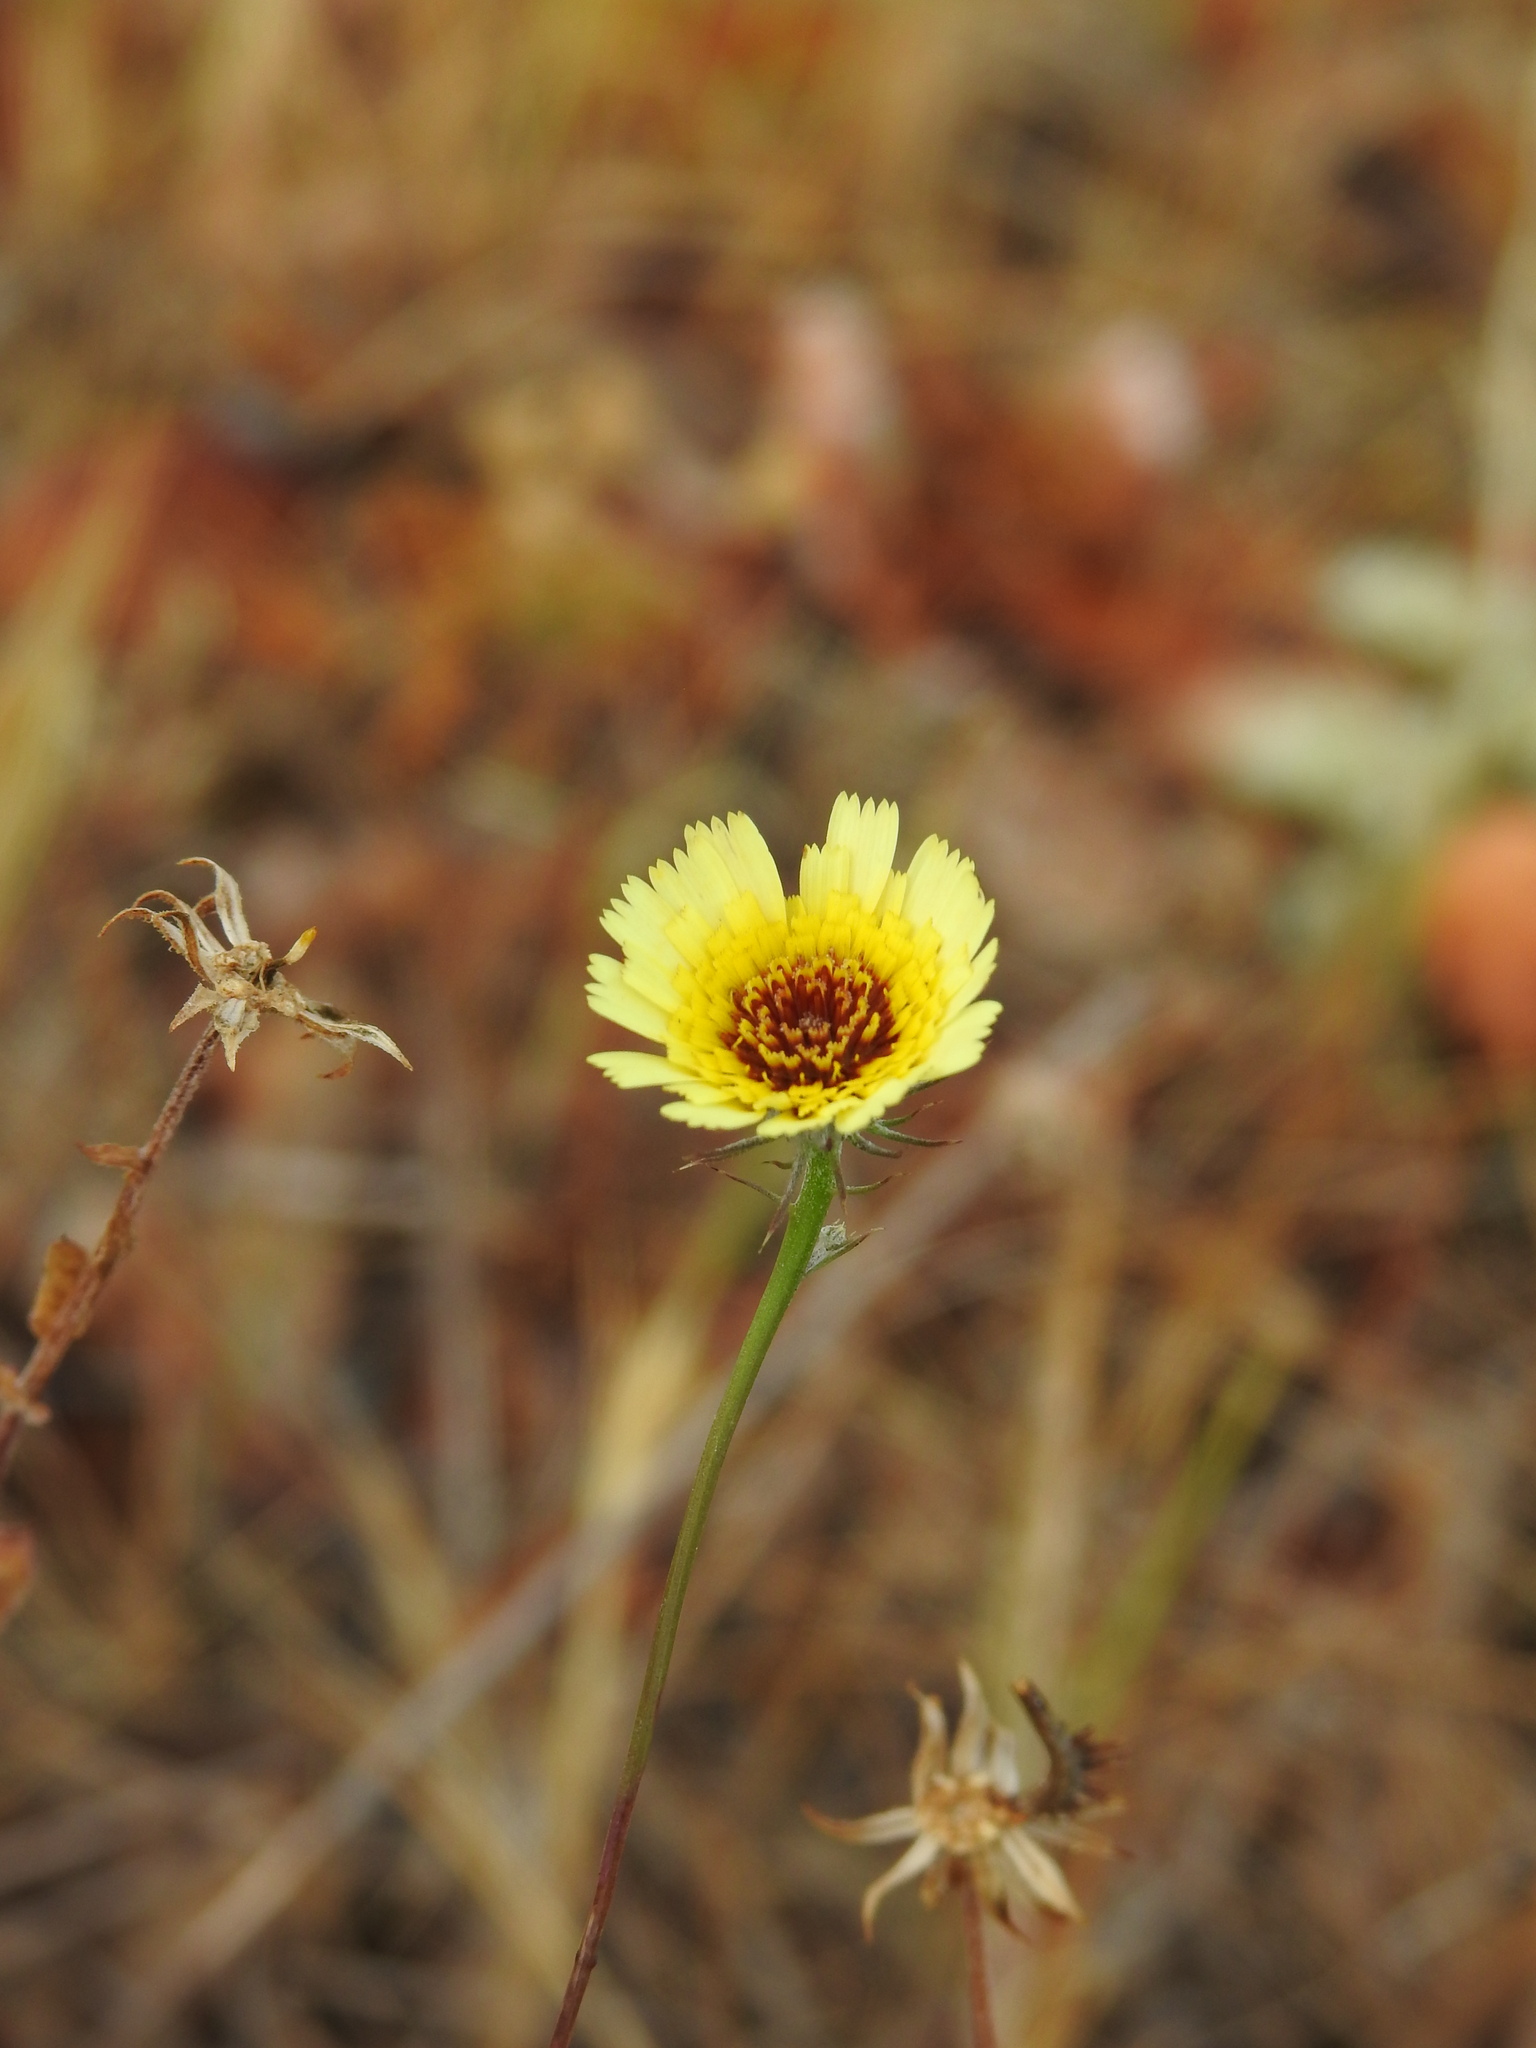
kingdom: Plantae
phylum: Tracheophyta
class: Magnoliopsida
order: Asterales
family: Asteraceae
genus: Tolpis
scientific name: Tolpis barbata
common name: Yellow hawkweed
